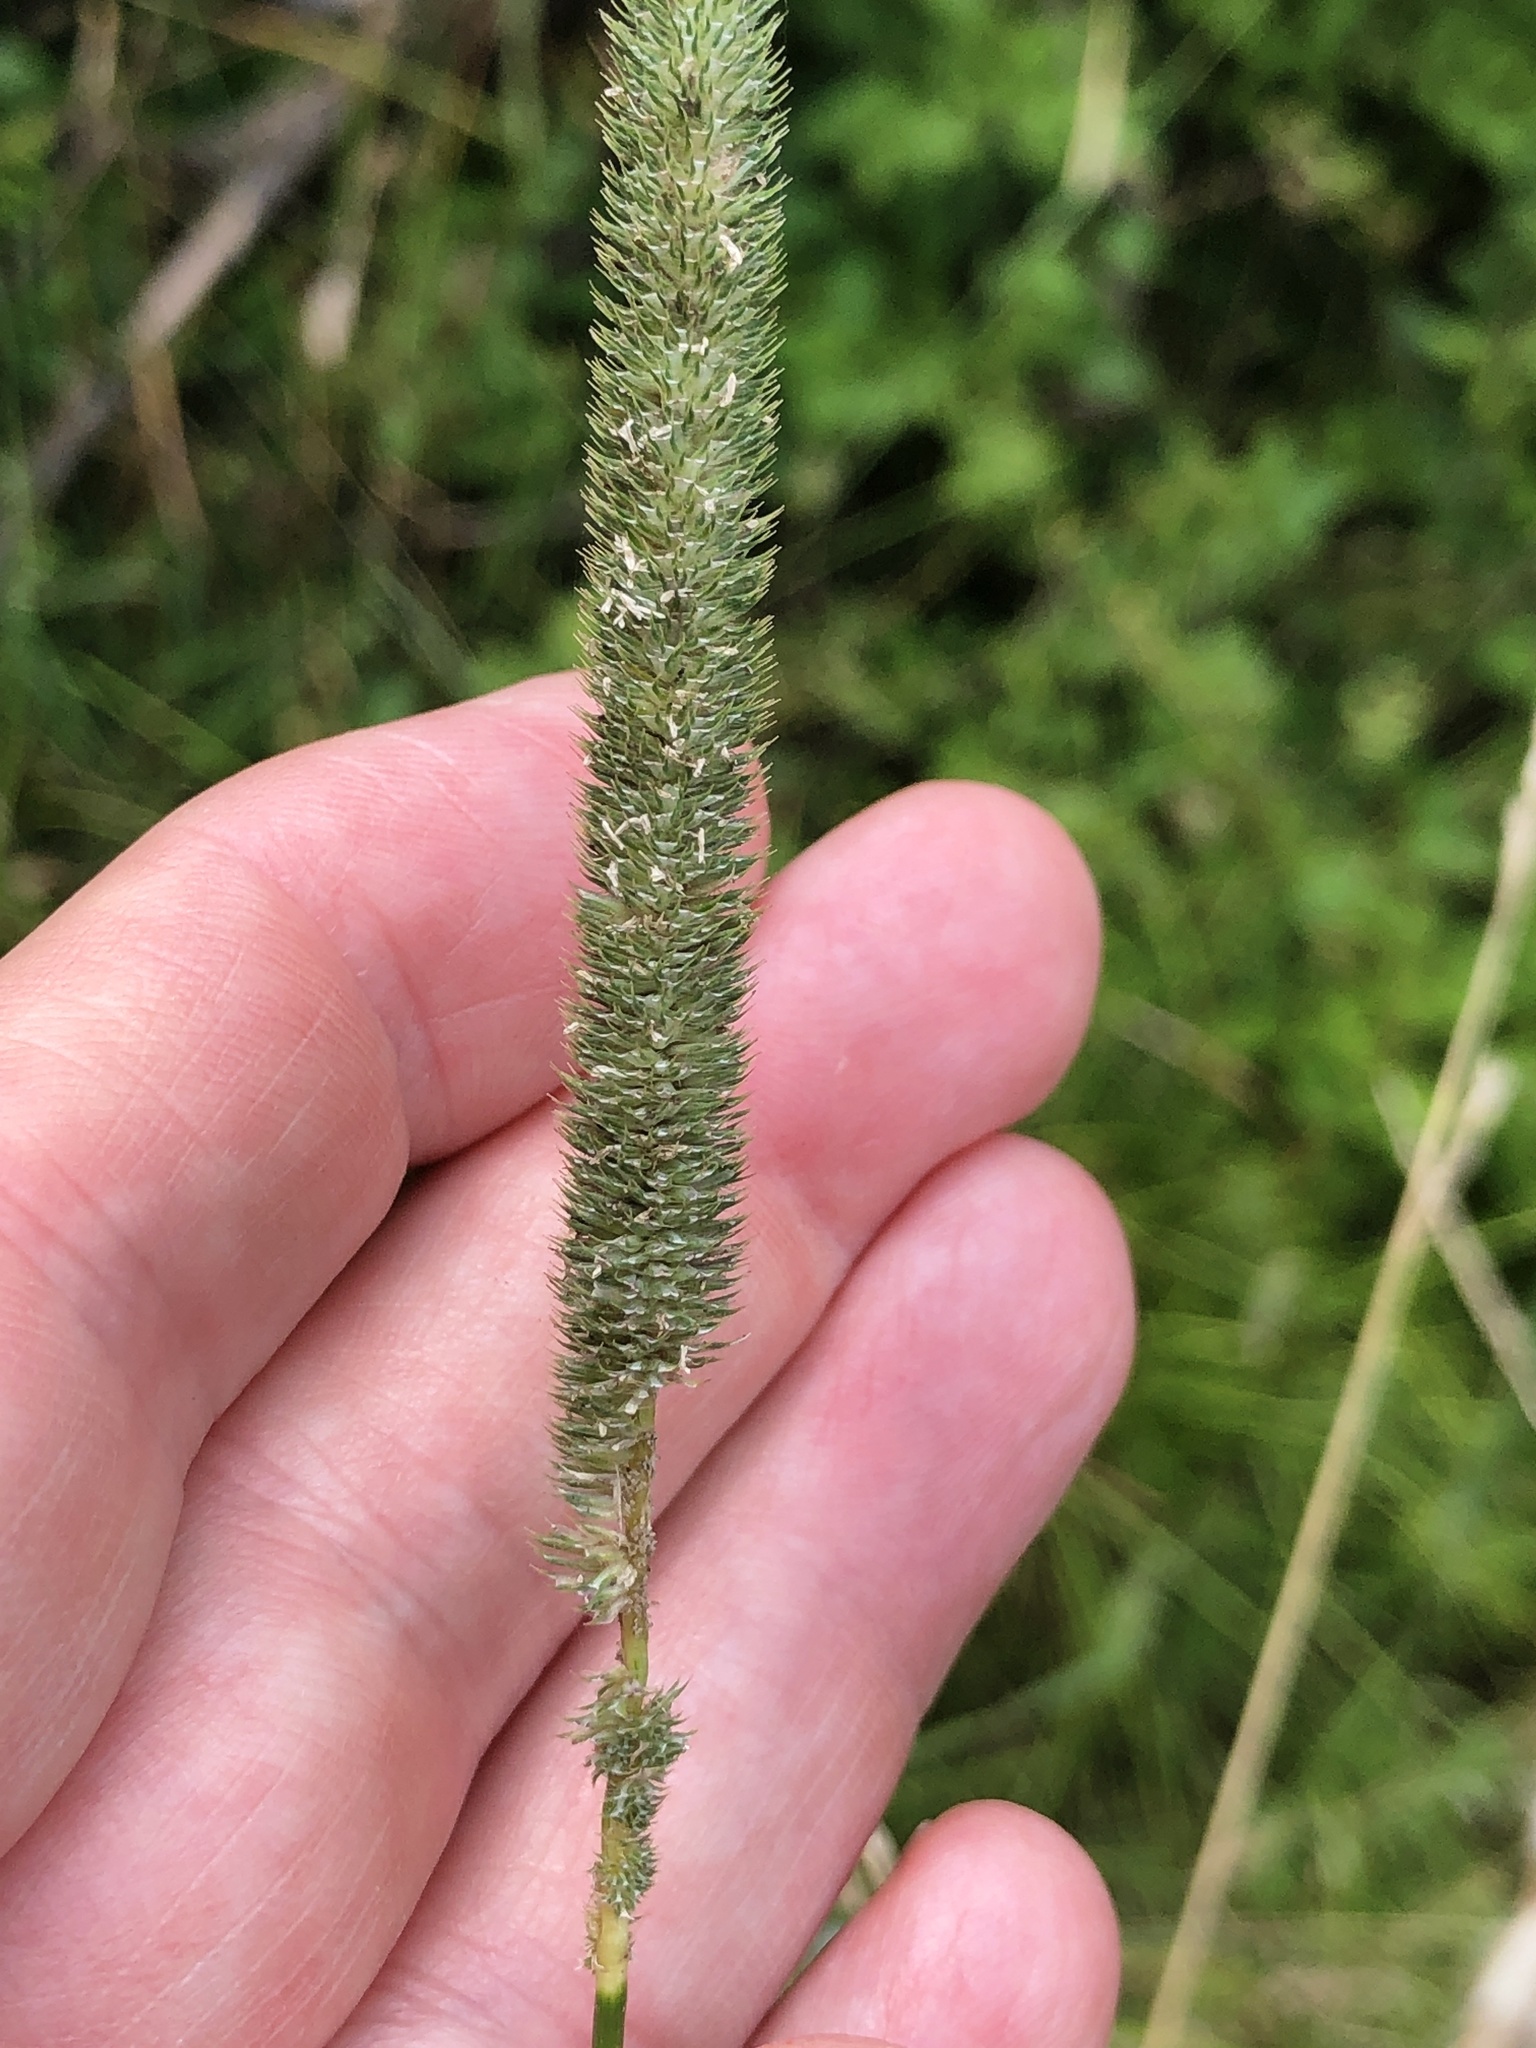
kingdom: Plantae
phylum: Tracheophyta
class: Liliopsida
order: Poales
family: Poaceae
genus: Phleum
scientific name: Phleum pratense
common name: Timothy grass
